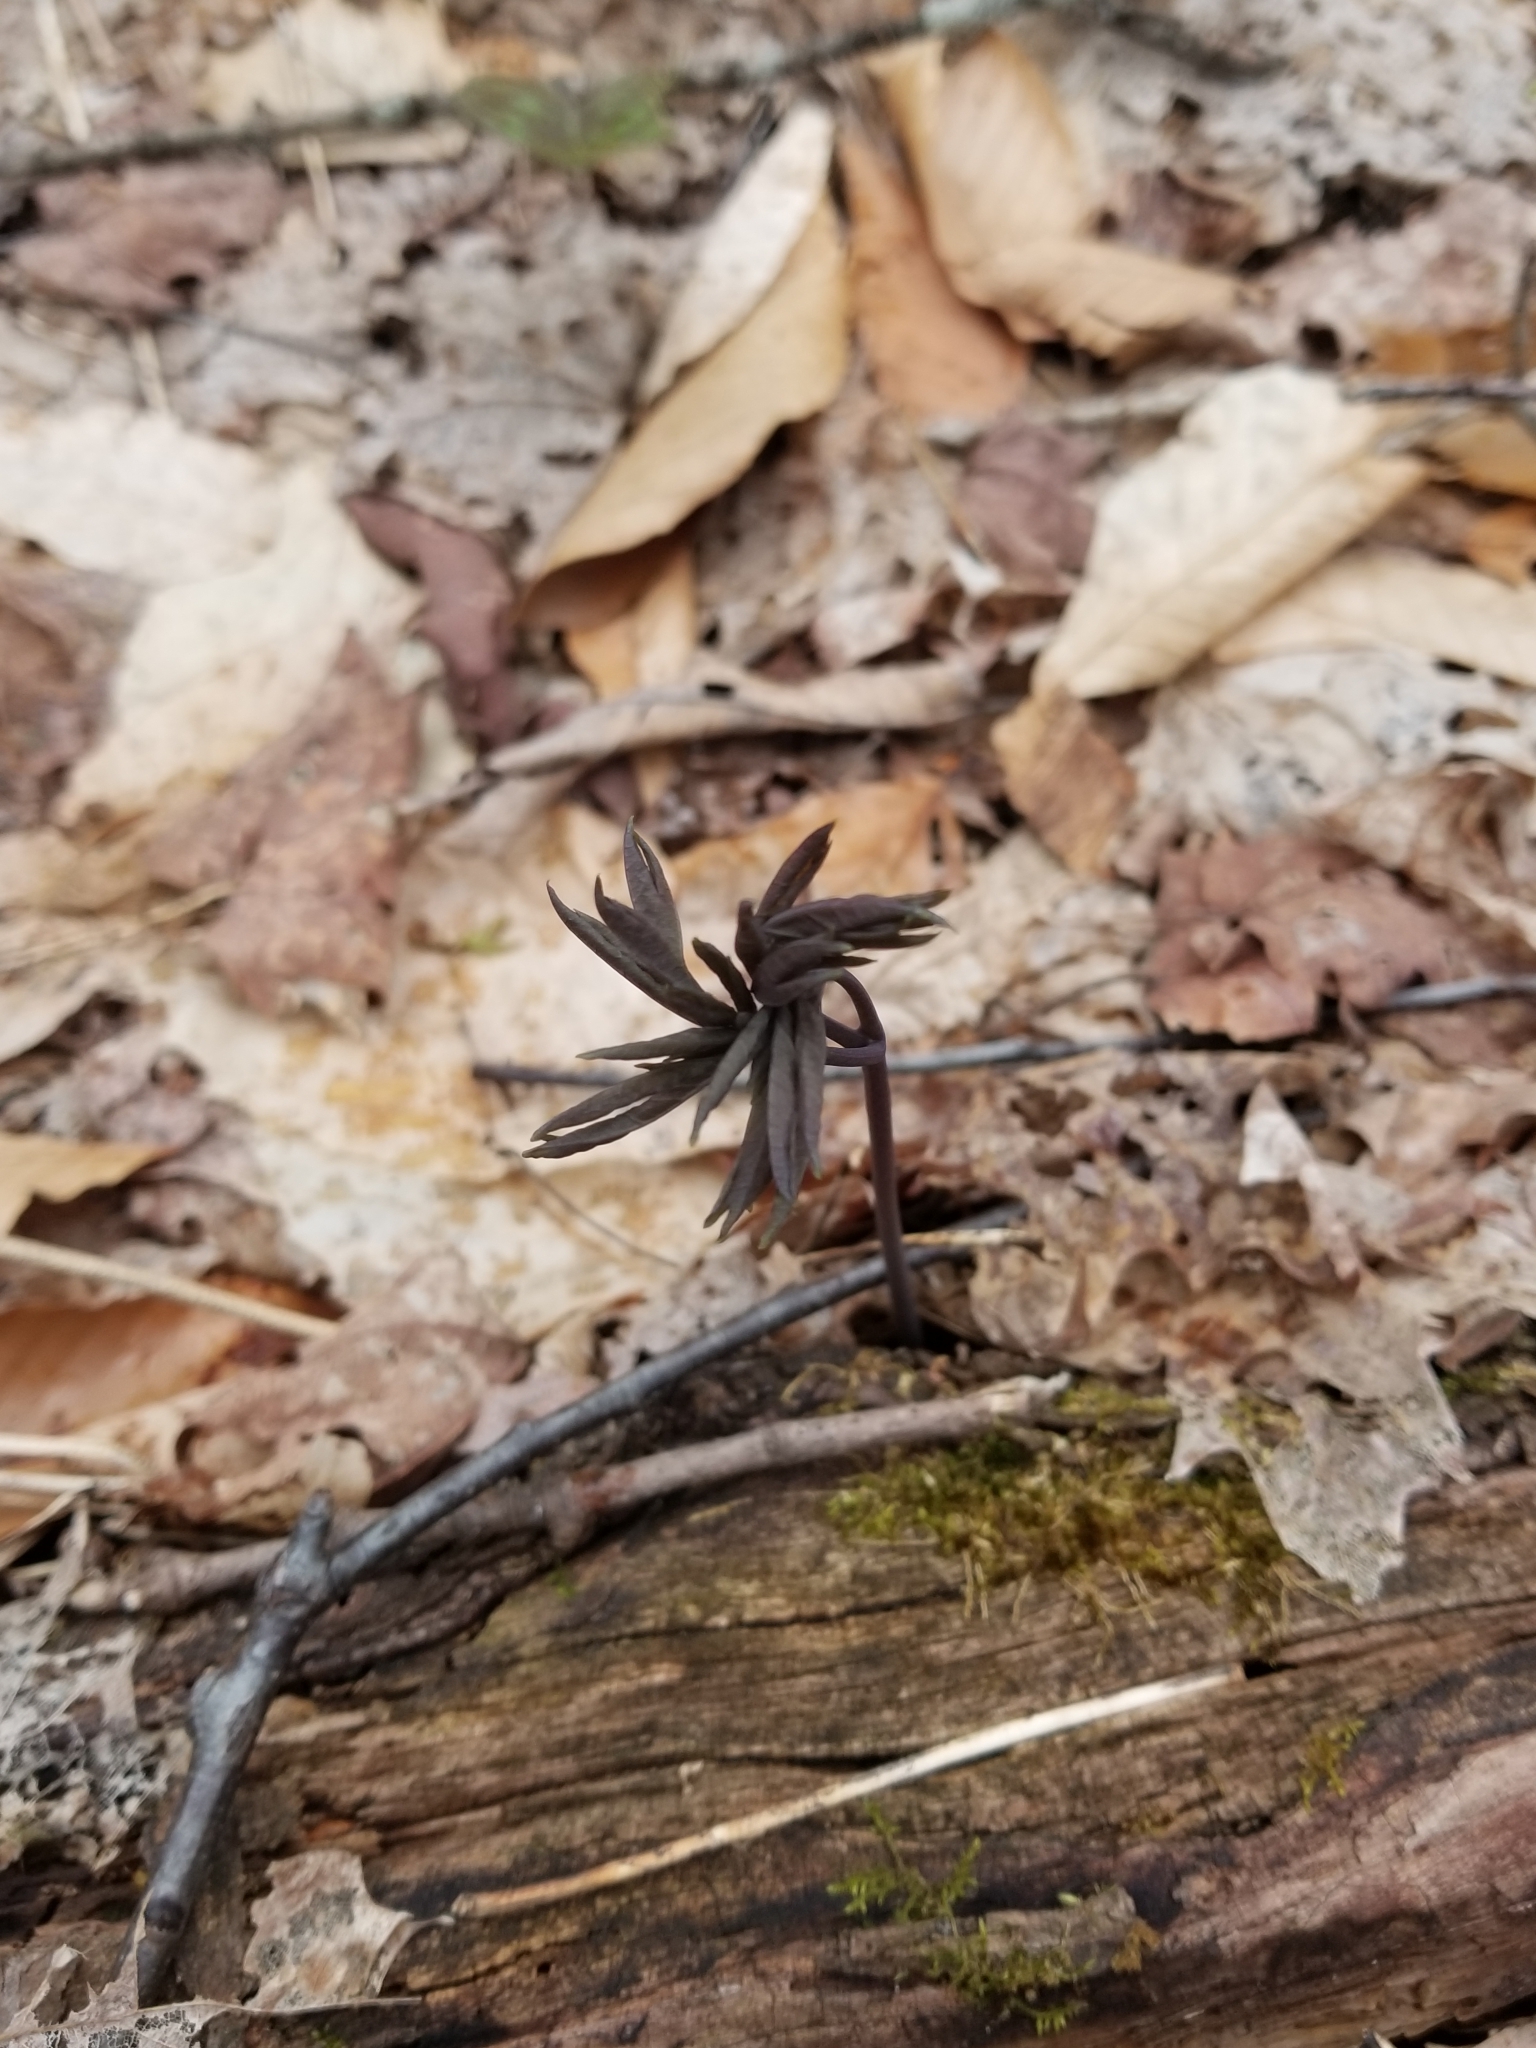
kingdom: Plantae
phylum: Tracheophyta
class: Magnoliopsida
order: Ranunculales
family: Berberidaceae
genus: Caulophyllum
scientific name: Caulophyllum giganteum
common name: Blue cohosh
